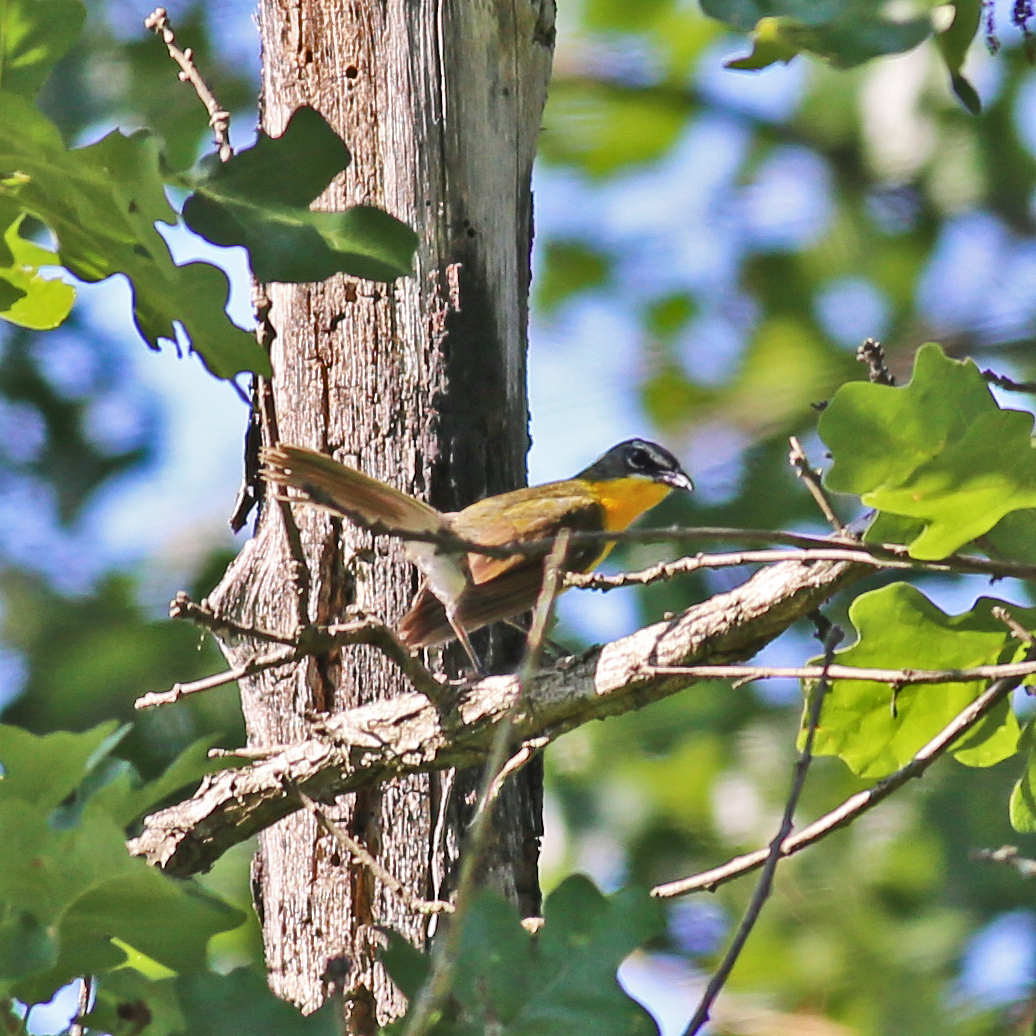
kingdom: Animalia
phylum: Chordata
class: Aves
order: Passeriformes
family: Parulidae
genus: Icteria
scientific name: Icteria virens
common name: Yellow-breasted chat
